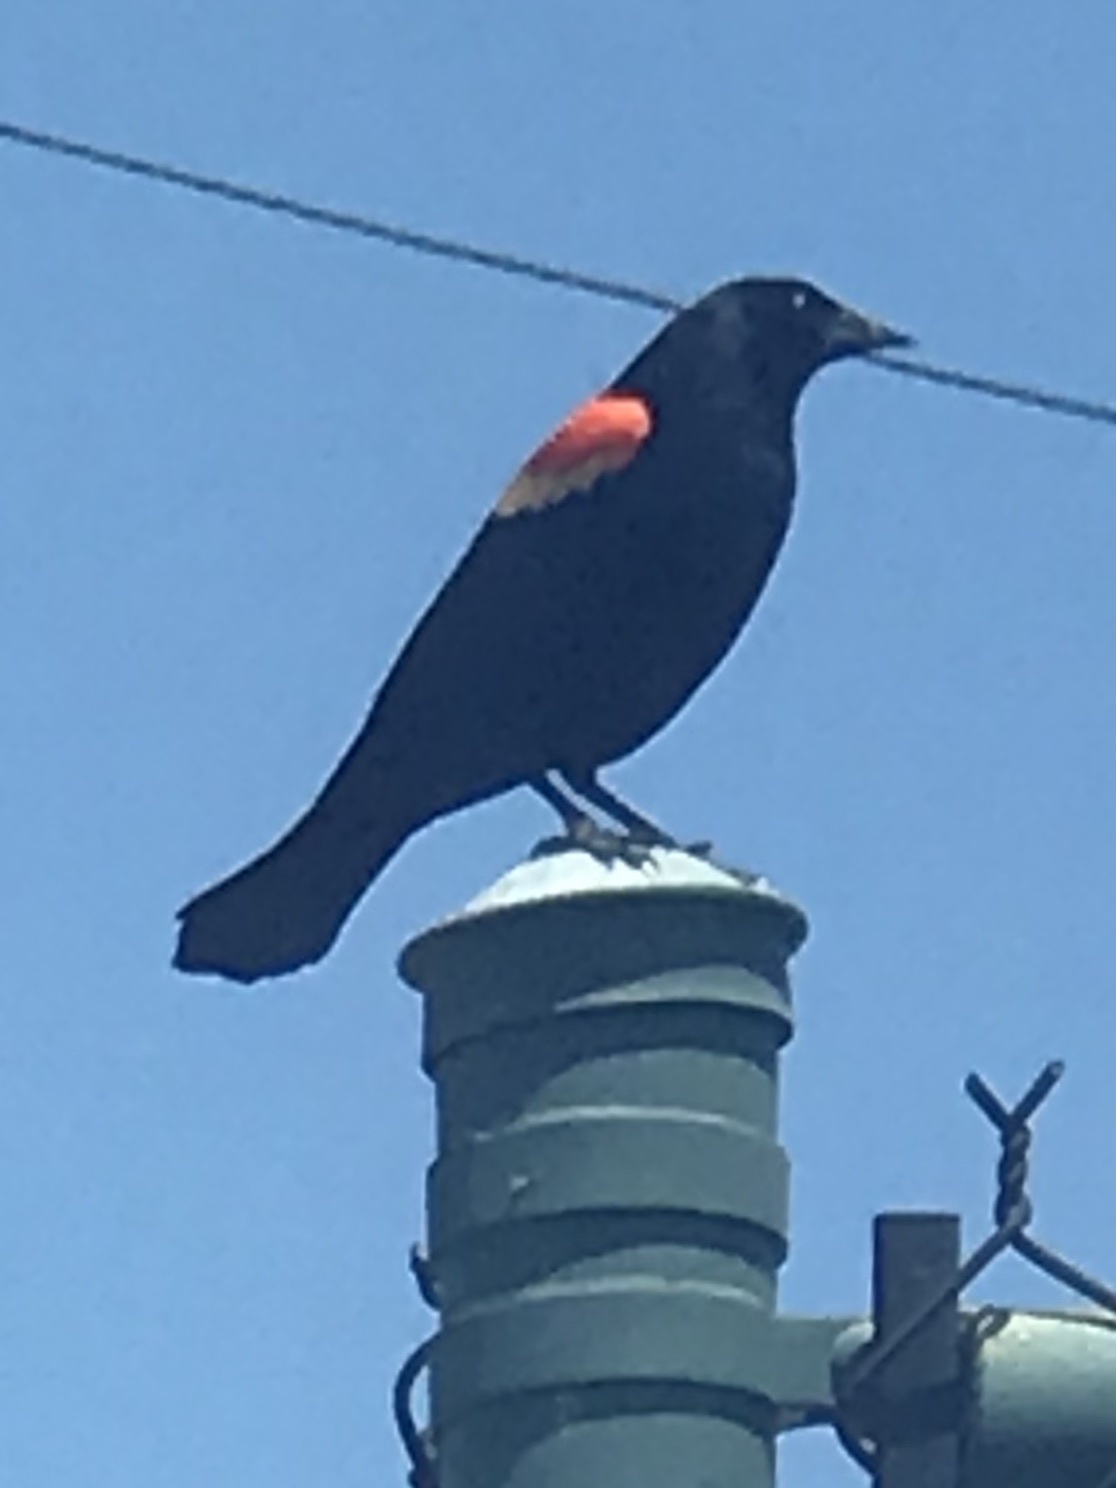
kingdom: Animalia
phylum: Chordata
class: Aves
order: Passeriformes
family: Icteridae
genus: Agelaius
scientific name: Agelaius phoeniceus
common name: Red-winged blackbird
